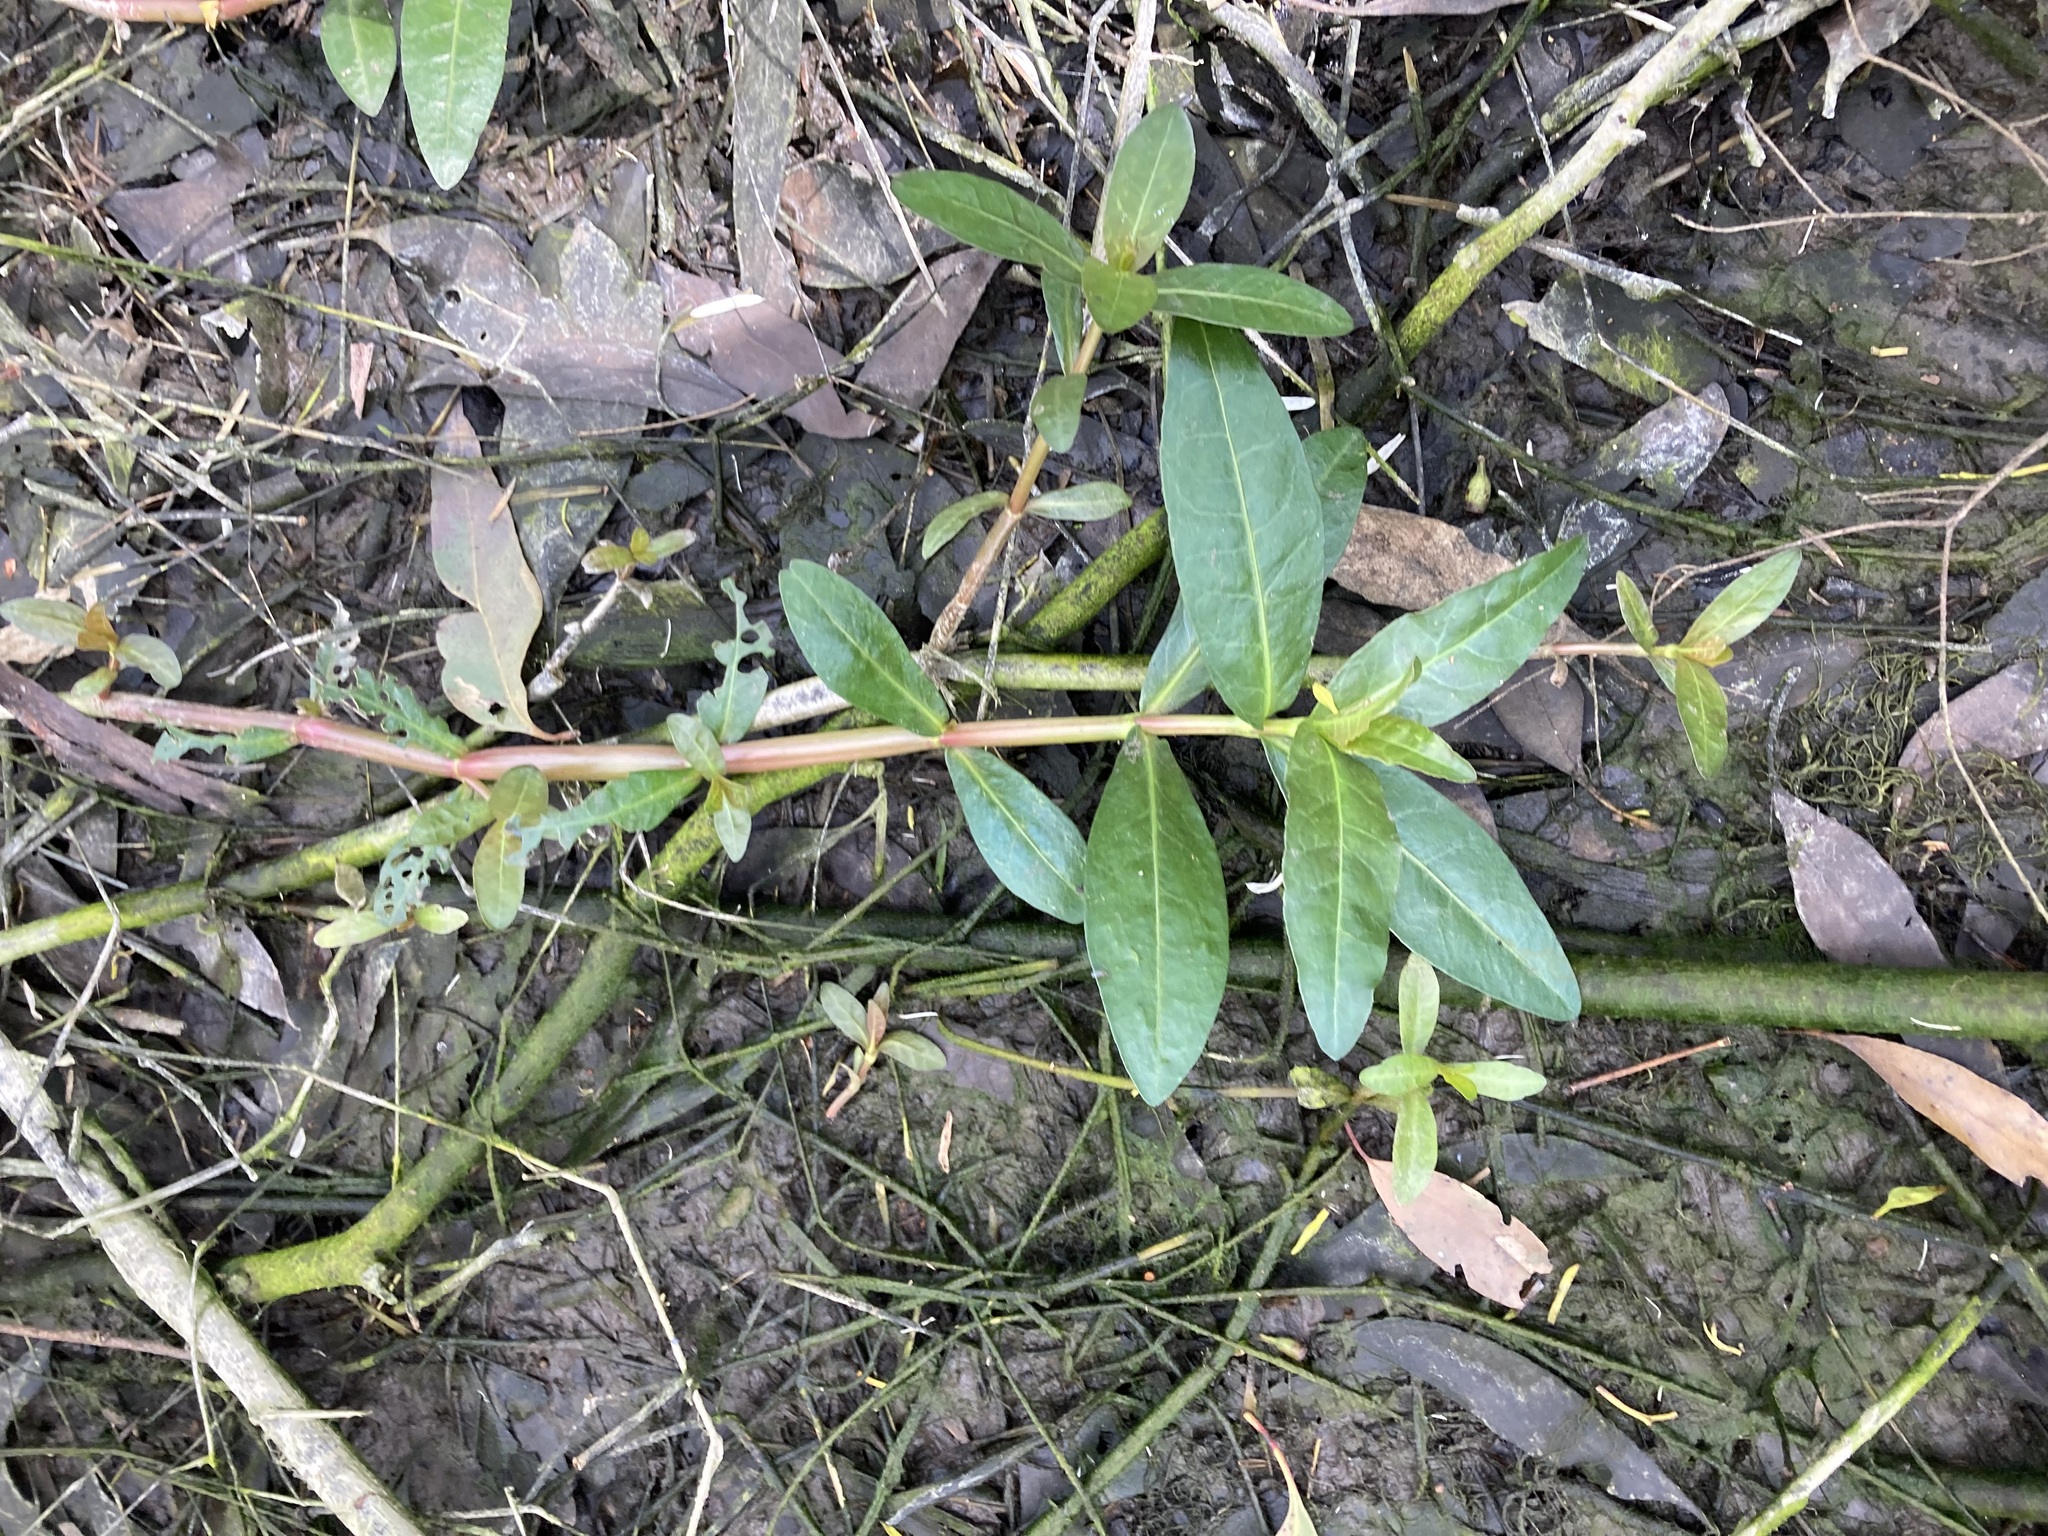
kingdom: Plantae
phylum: Tracheophyta
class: Magnoliopsida
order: Caryophyllales
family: Amaranthaceae
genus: Alternanthera
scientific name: Alternanthera philoxeroides
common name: Alligatorweed
